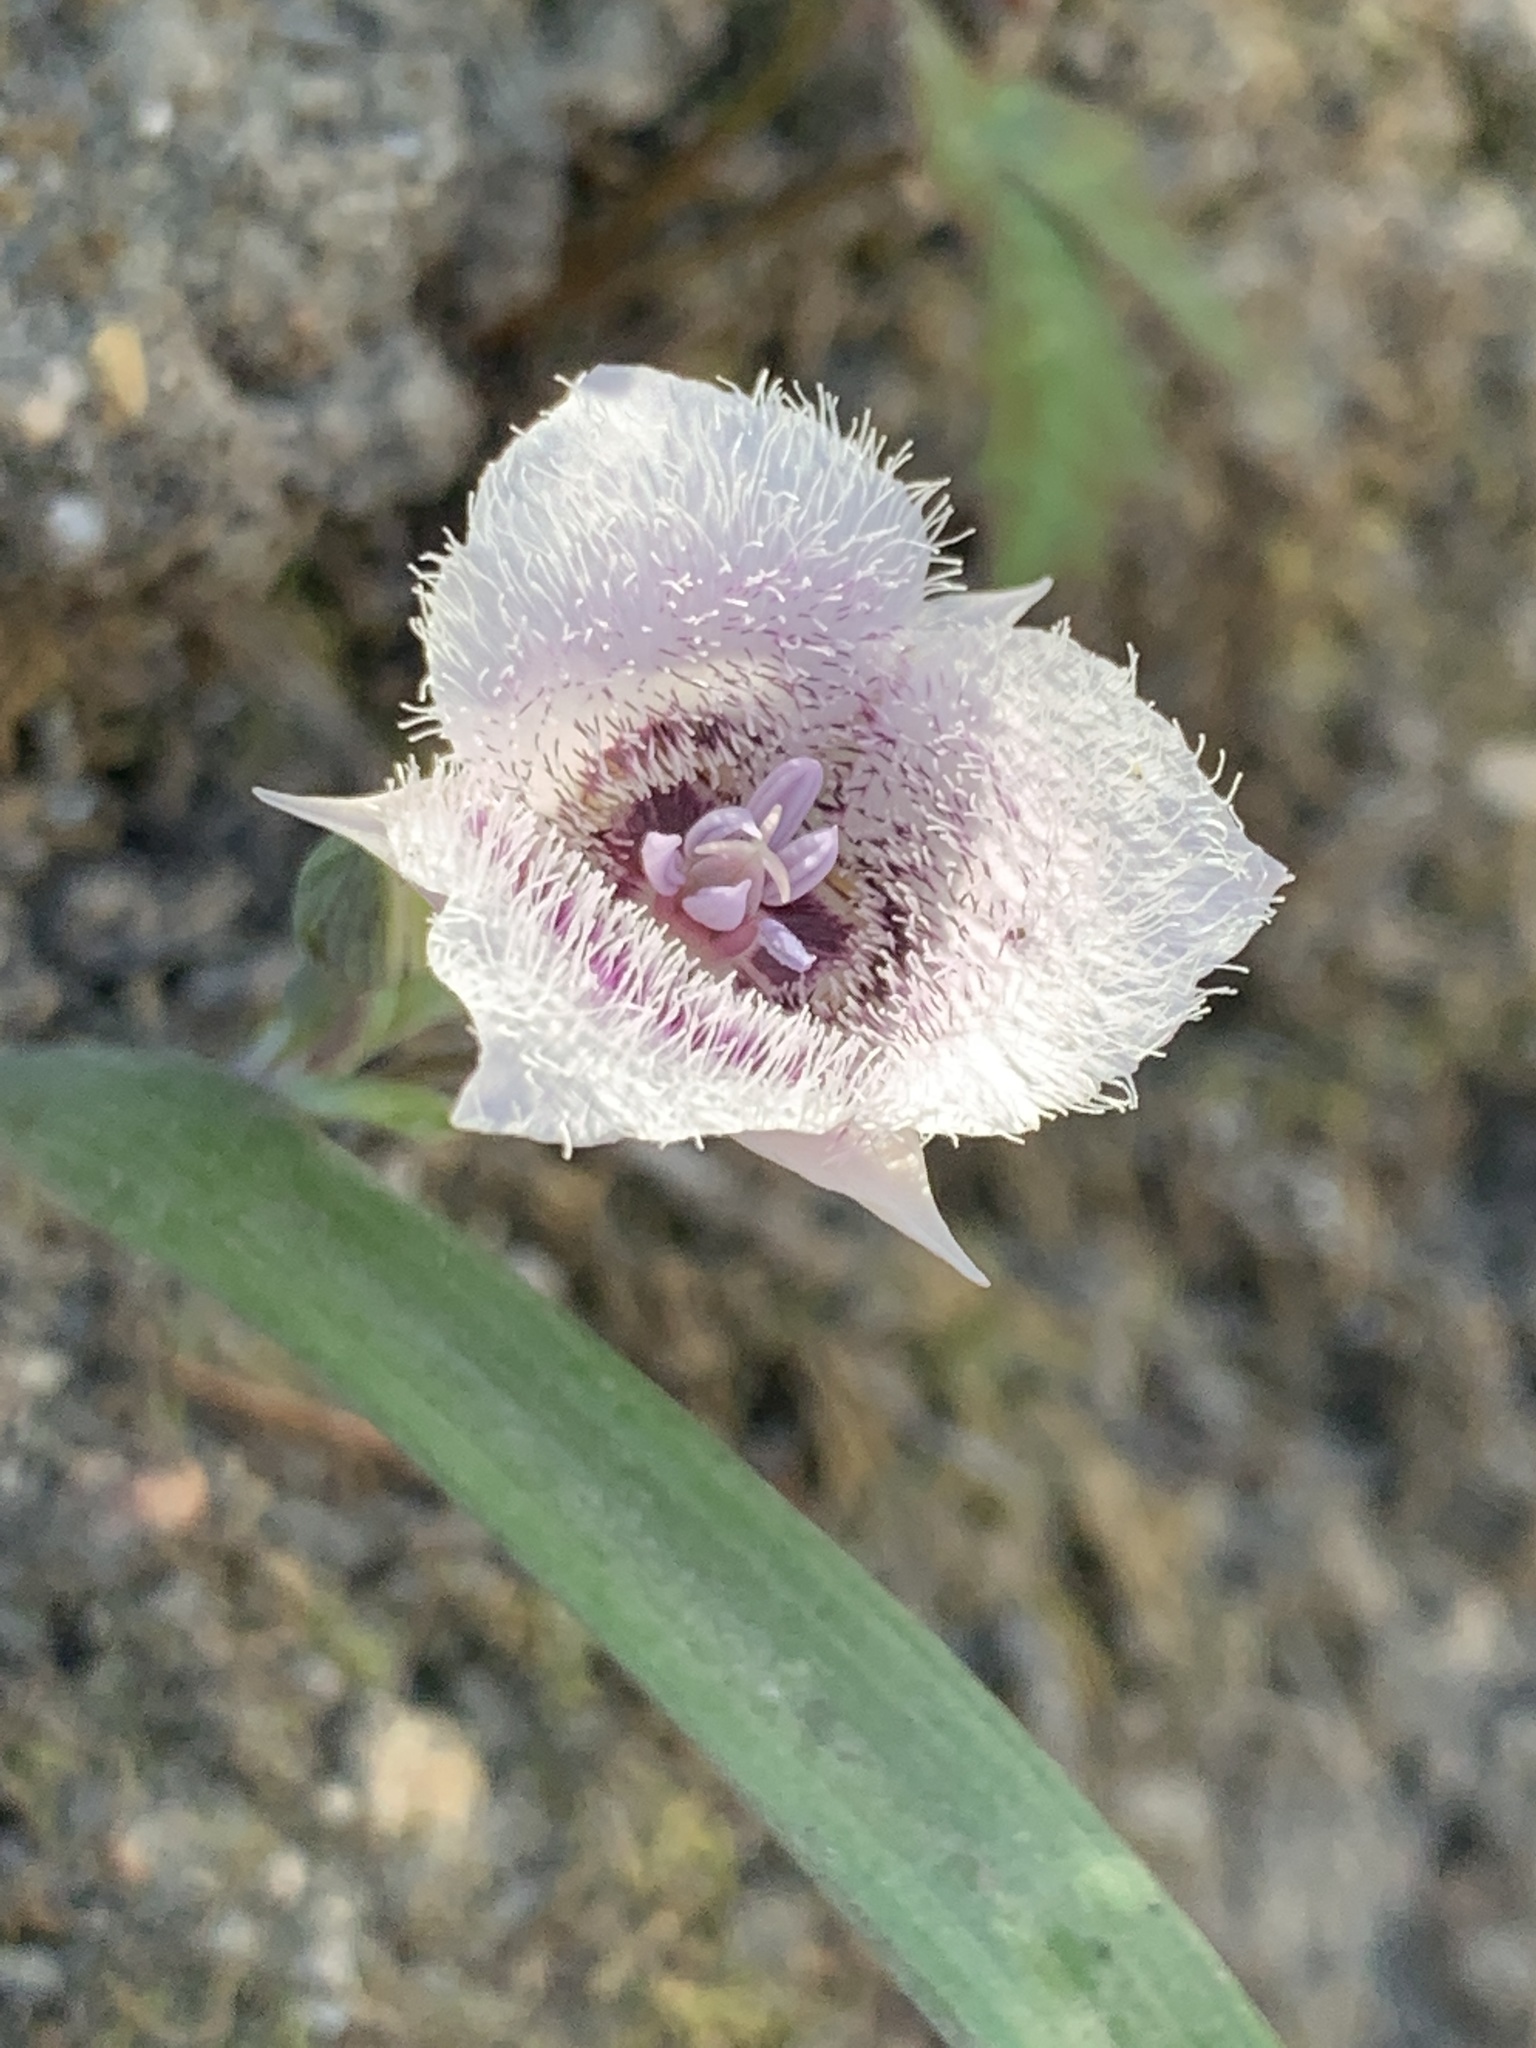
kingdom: Plantae
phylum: Tracheophyta
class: Liliopsida
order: Liliales
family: Liliaceae
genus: Calochortus
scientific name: Calochortus tolmiei
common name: Pussy-ears
